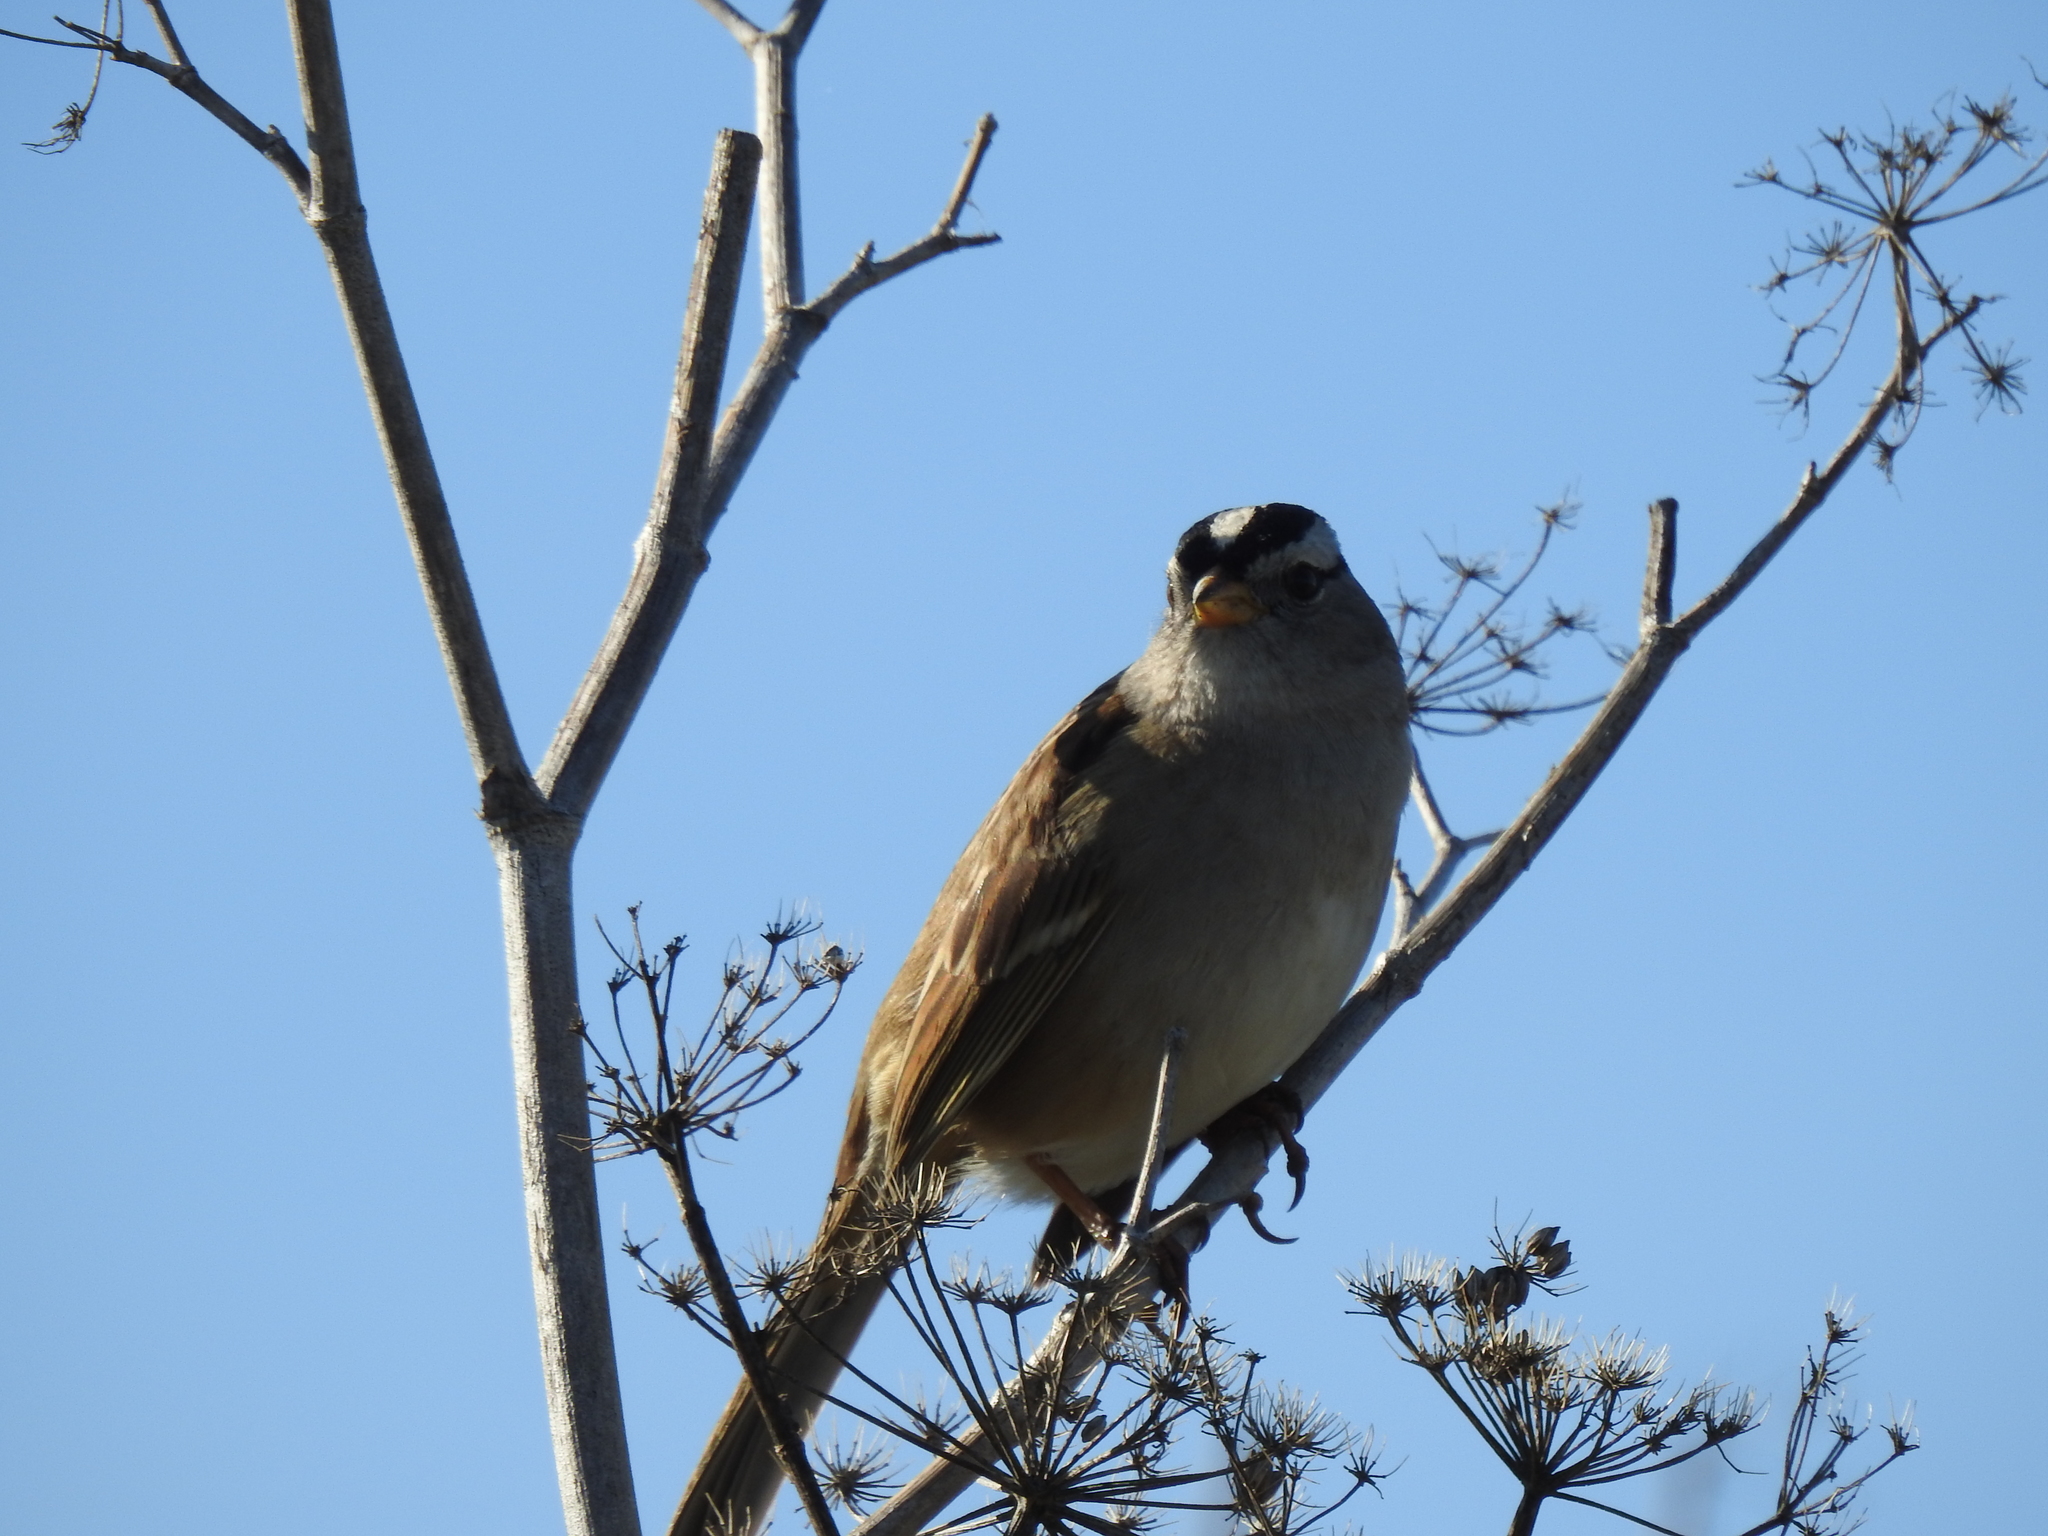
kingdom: Animalia
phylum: Chordata
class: Aves
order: Passeriformes
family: Passerellidae
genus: Zonotrichia
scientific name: Zonotrichia leucophrys
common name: White-crowned sparrow
